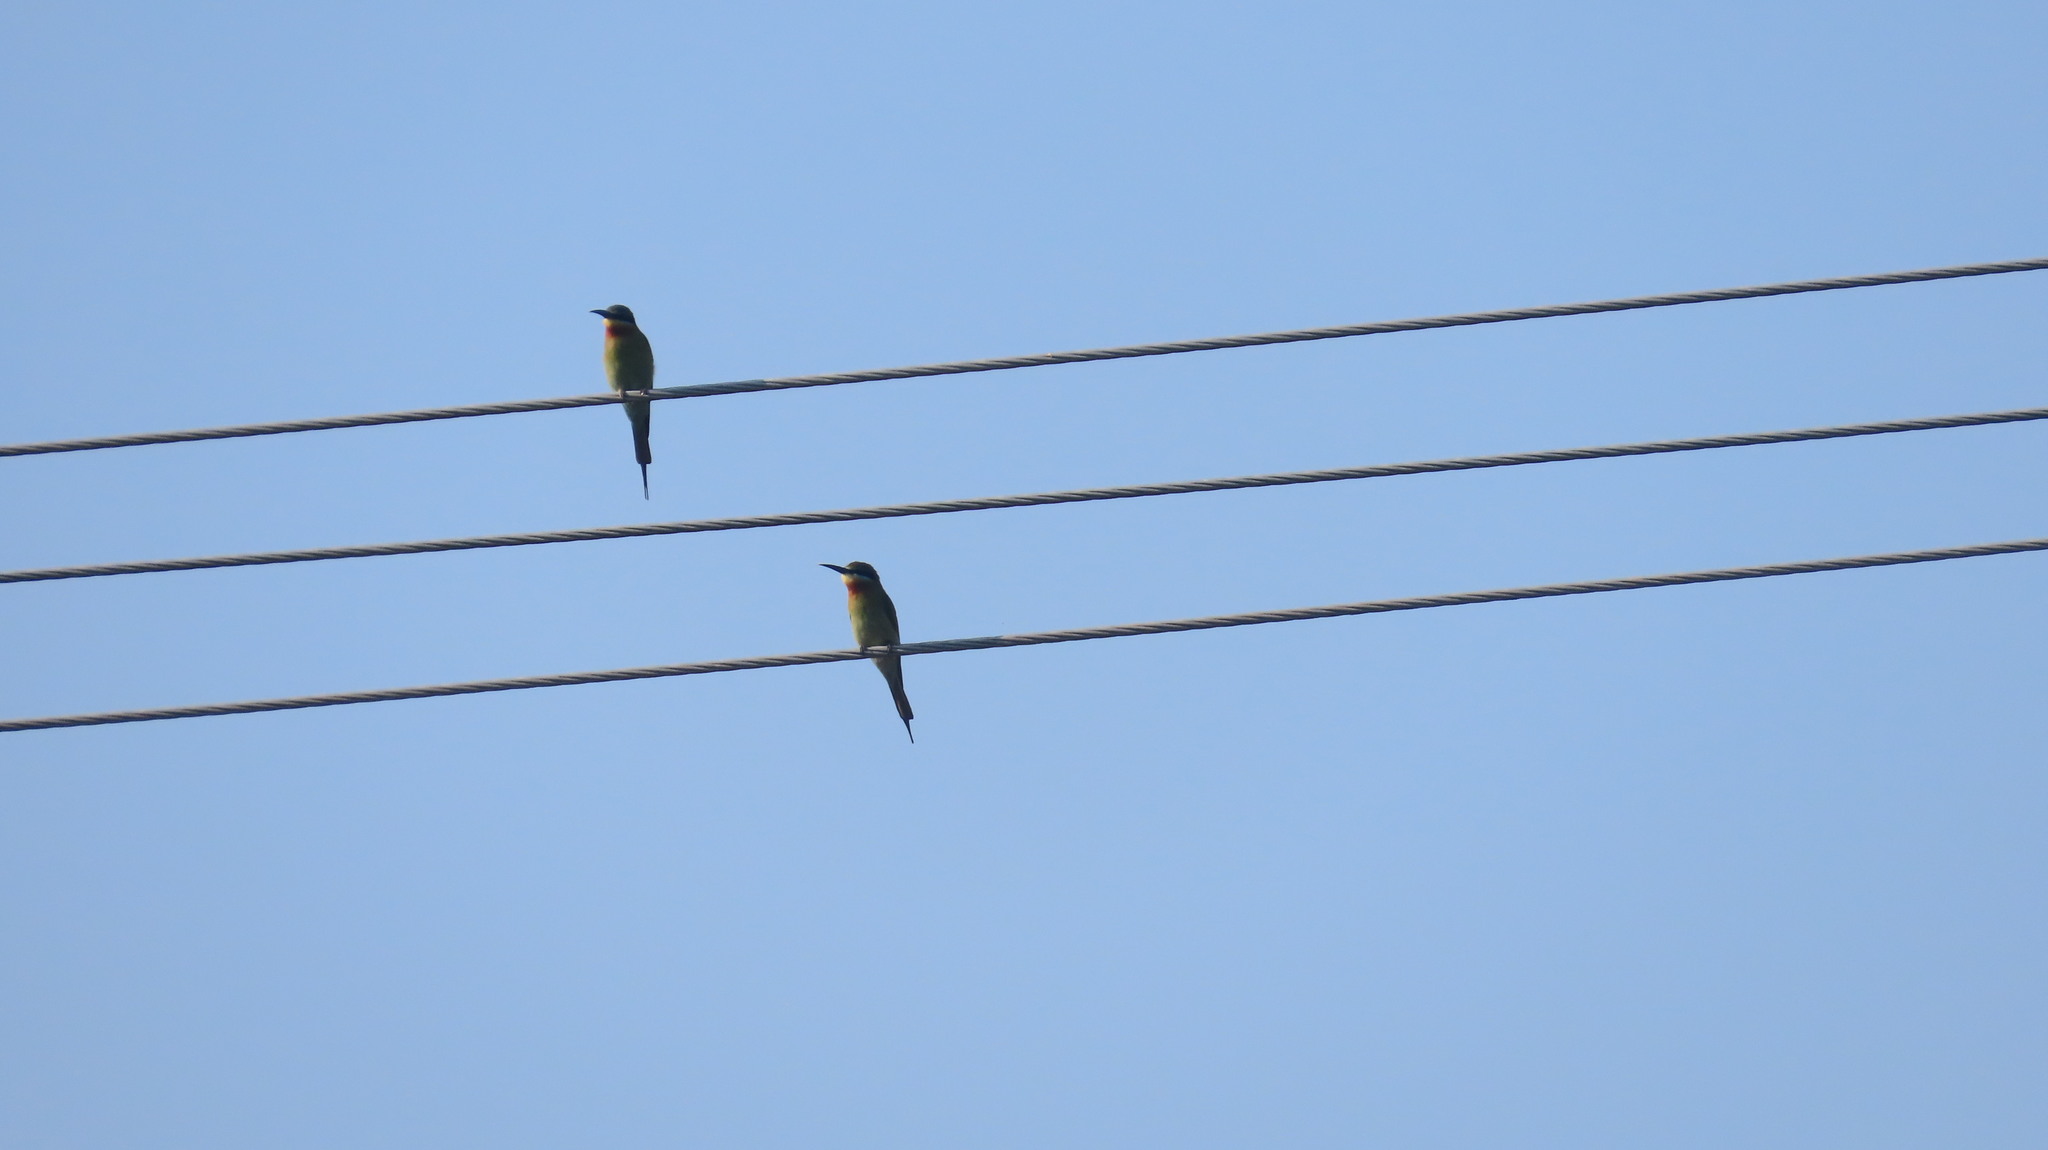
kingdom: Animalia
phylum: Chordata
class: Aves
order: Coraciiformes
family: Meropidae
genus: Merops
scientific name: Merops philippinus
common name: Blue-tailed bee-eater
